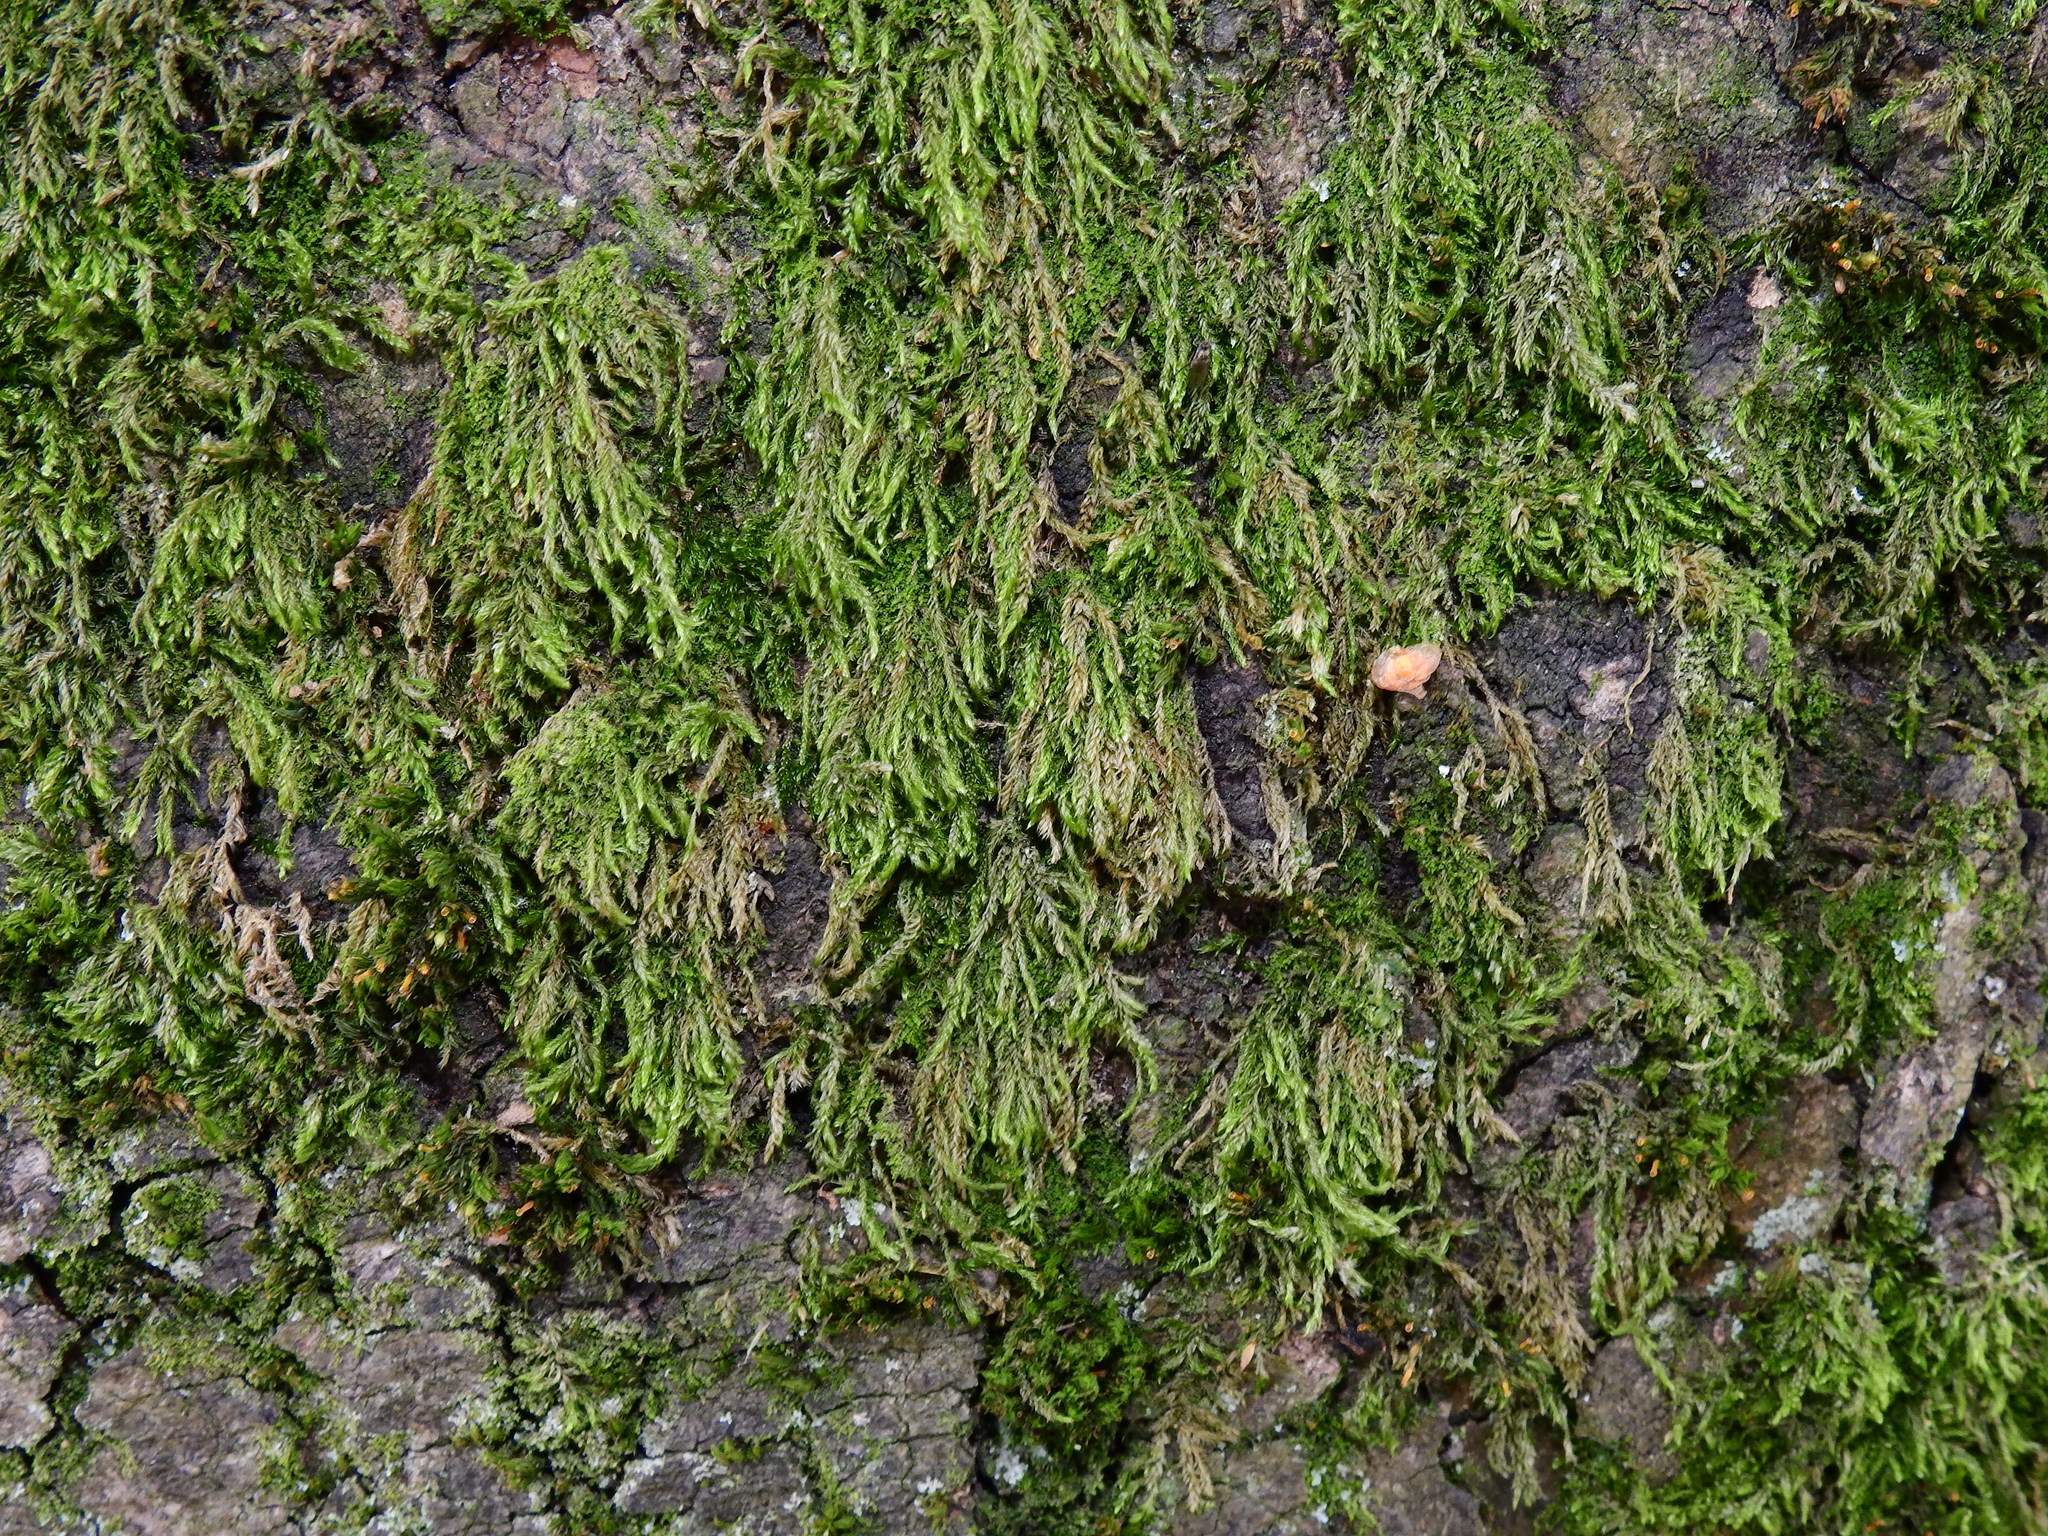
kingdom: Plantae
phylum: Bryophyta
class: Bryopsida
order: Hypnales
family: Hypnaceae
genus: Hypnum
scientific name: Hypnum cupressiforme
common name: Cypress-leaved plait-moss
